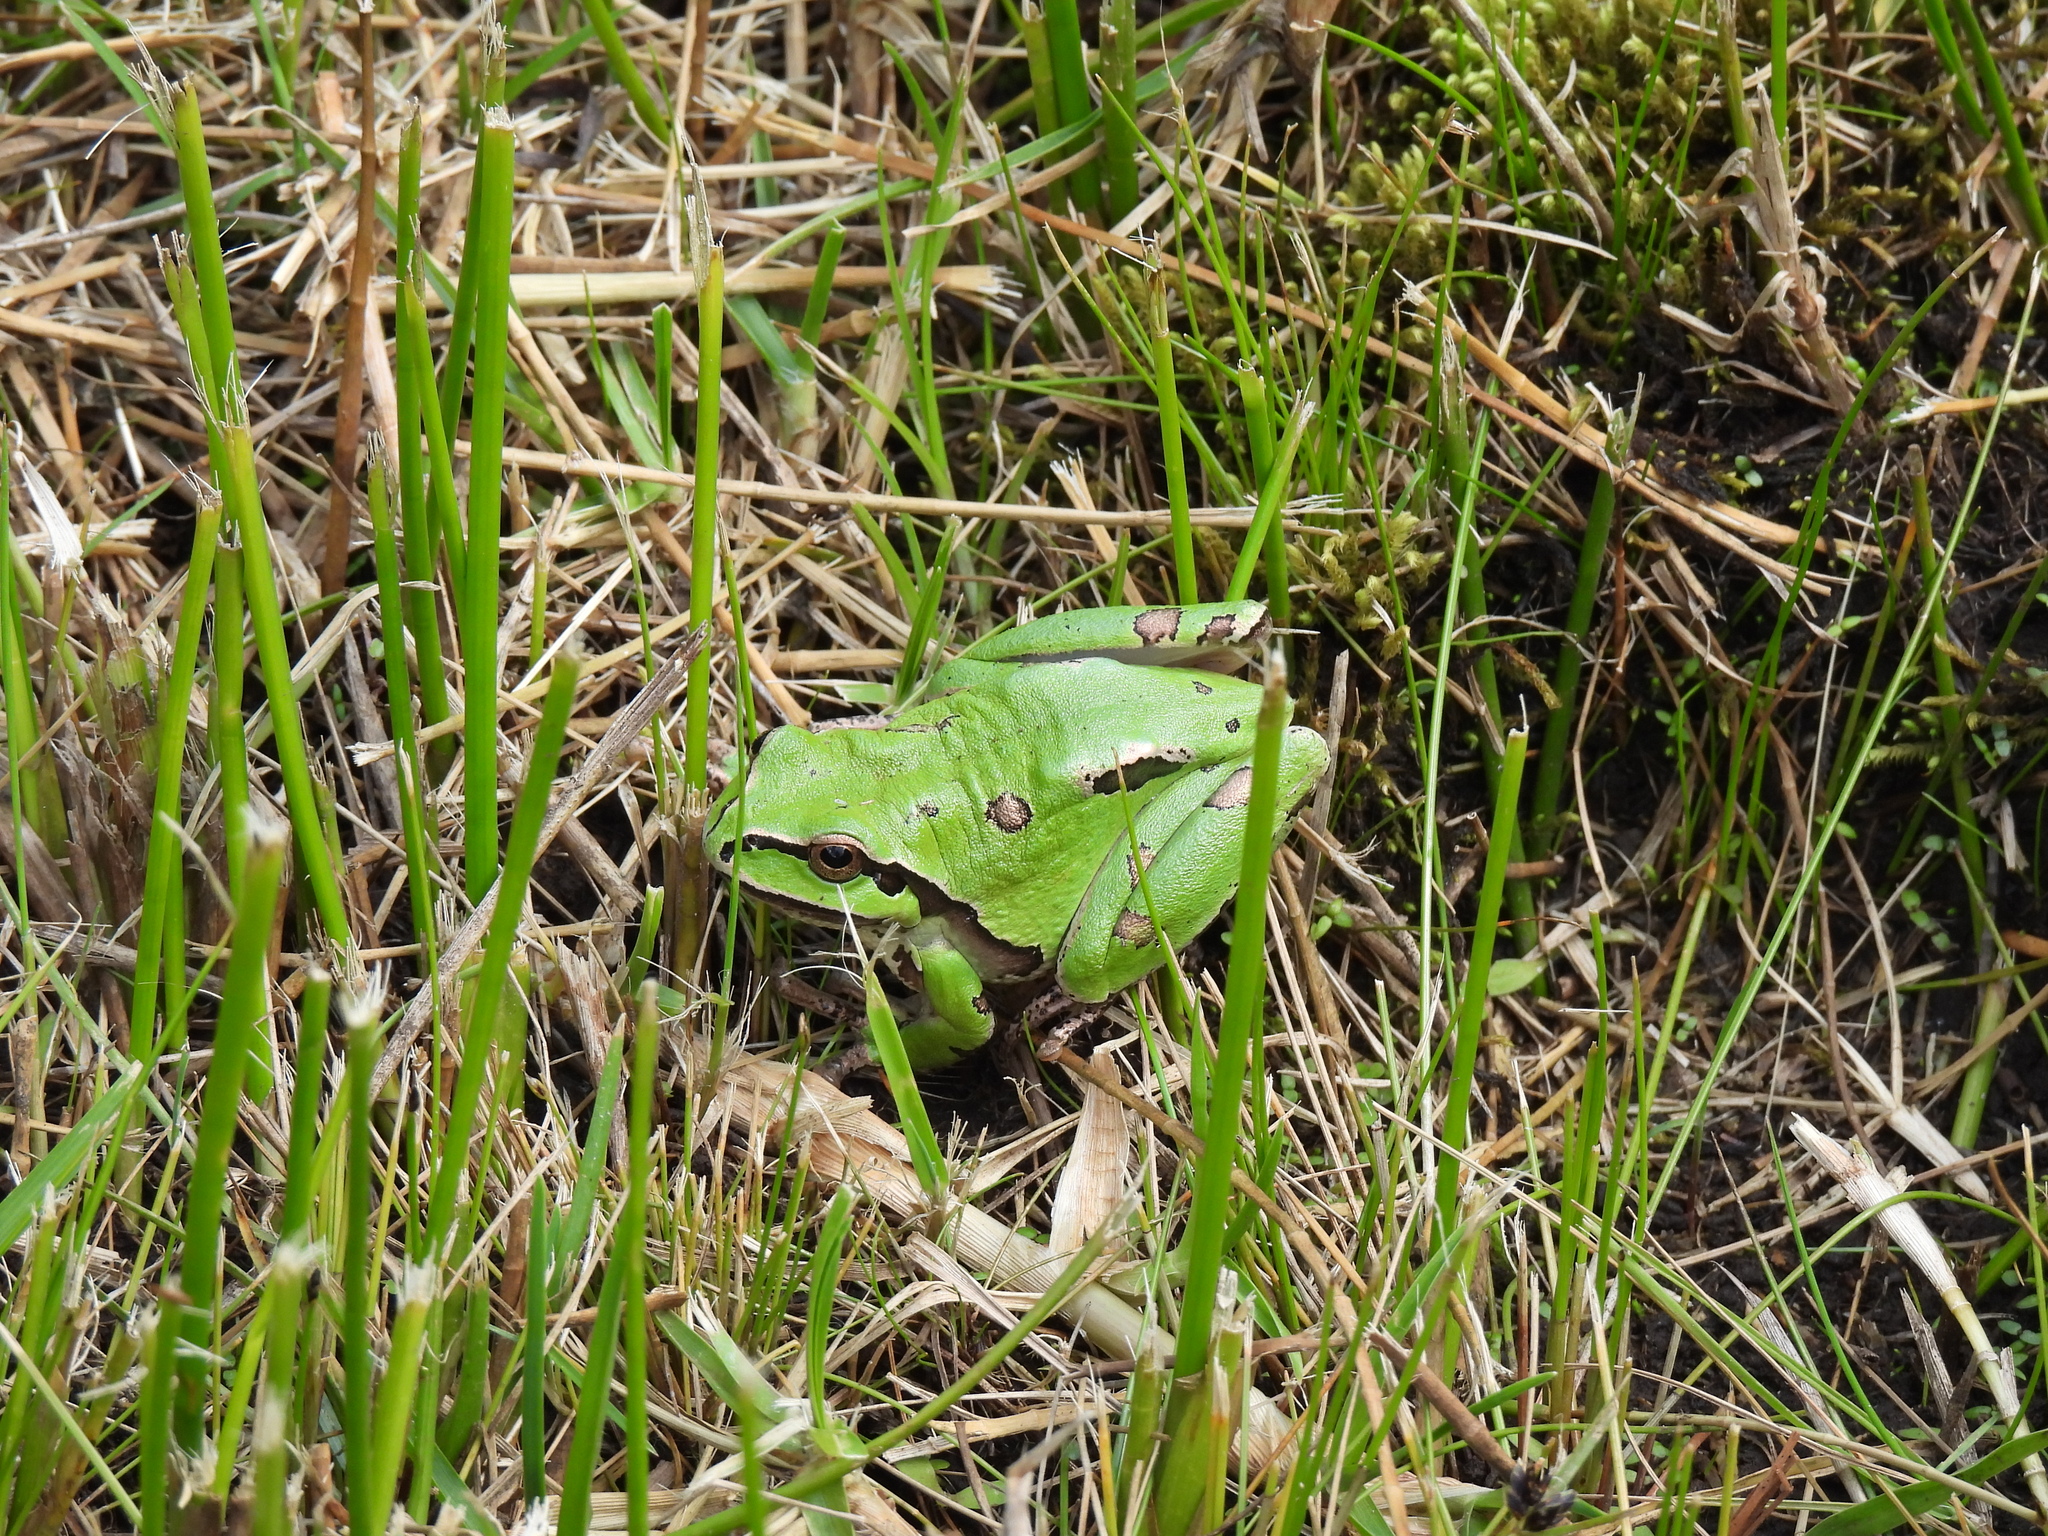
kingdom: Animalia
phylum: Chordata
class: Amphibia
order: Anura
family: Hylidae
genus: Dryophytes
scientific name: Dryophytes plicatus
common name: Ridged treefrog
